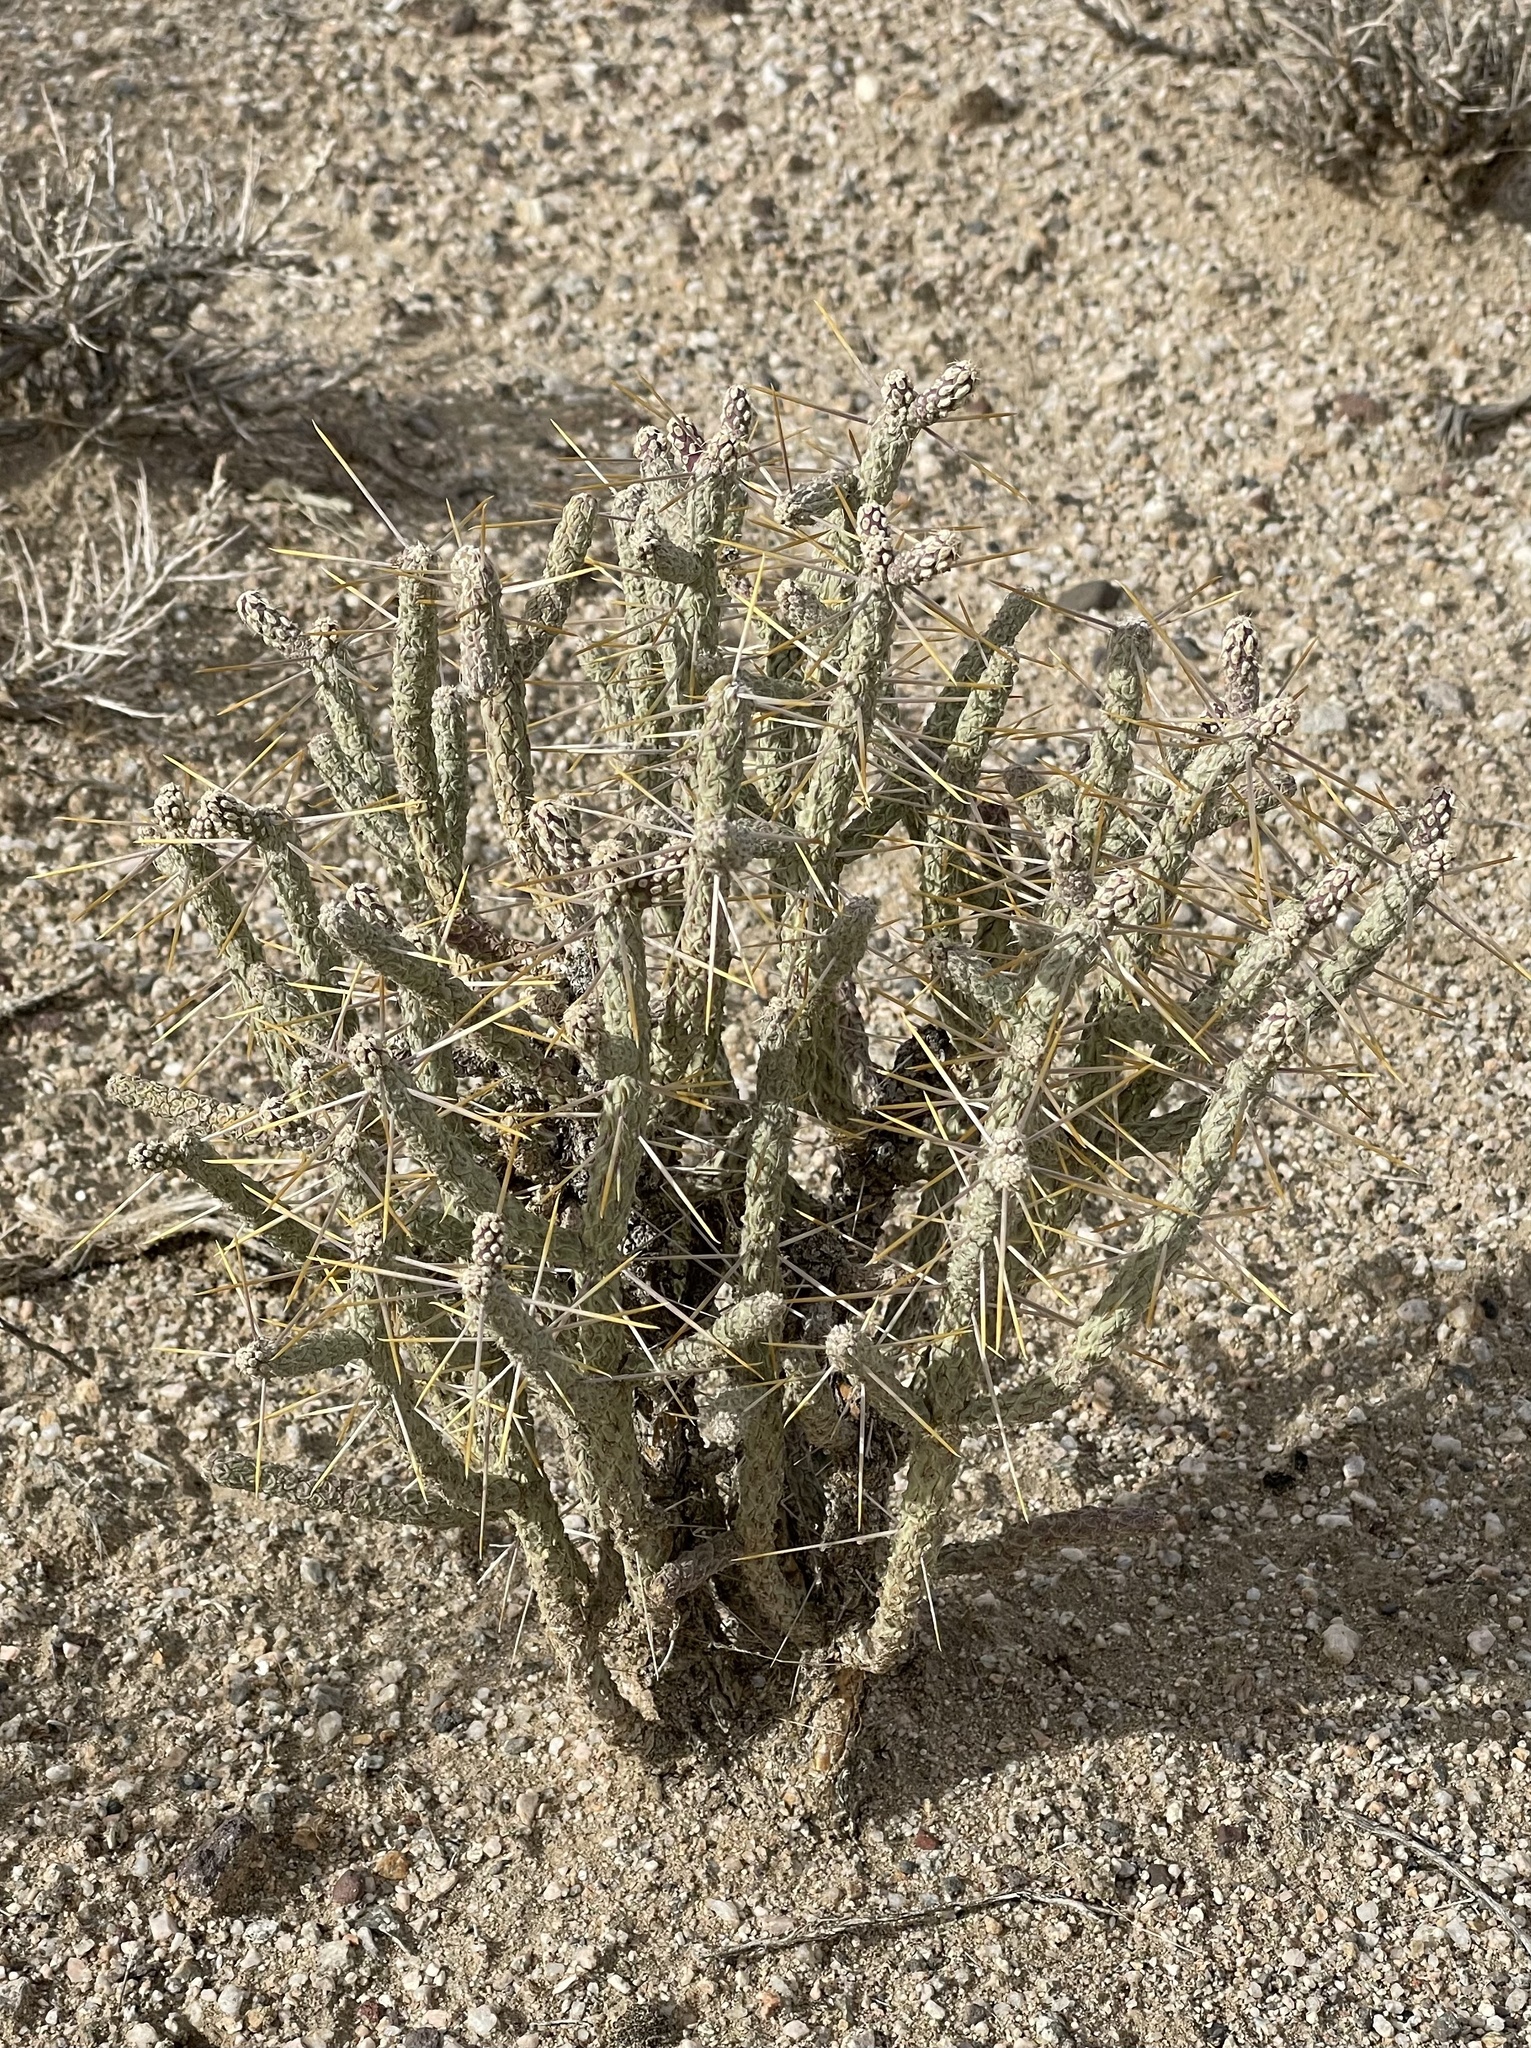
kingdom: Plantae
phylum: Tracheophyta
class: Magnoliopsida
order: Caryophyllales
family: Cactaceae
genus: Cylindropuntia
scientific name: Cylindropuntia ramosissima
